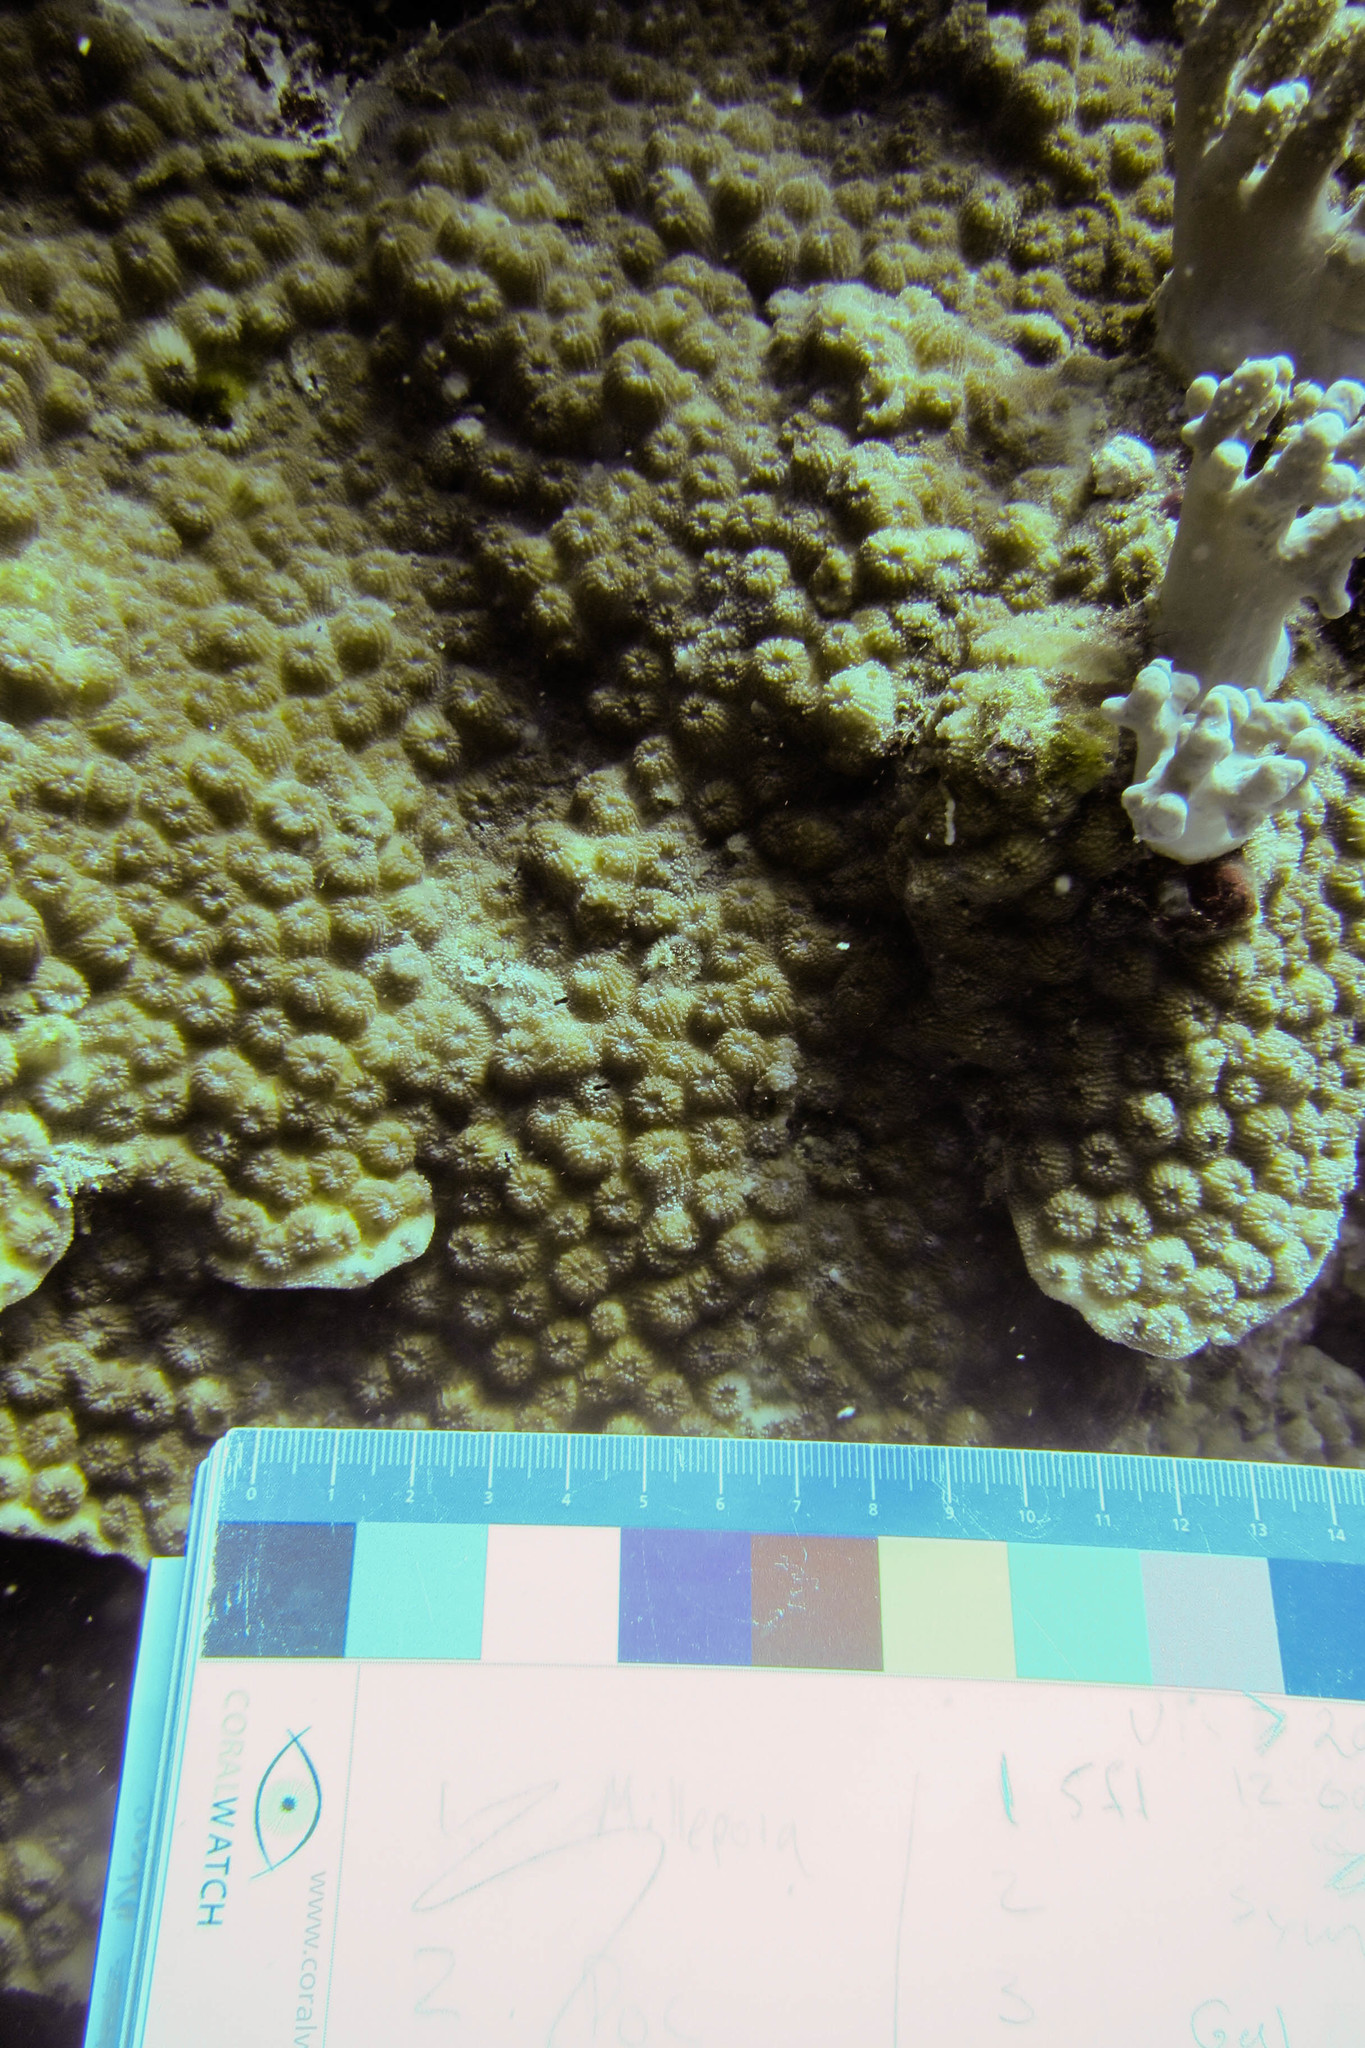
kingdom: Animalia
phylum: Cnidaria
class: Anthozoa
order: Scleractinia
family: Merulinidae
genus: Echinopora
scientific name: Echinopora
